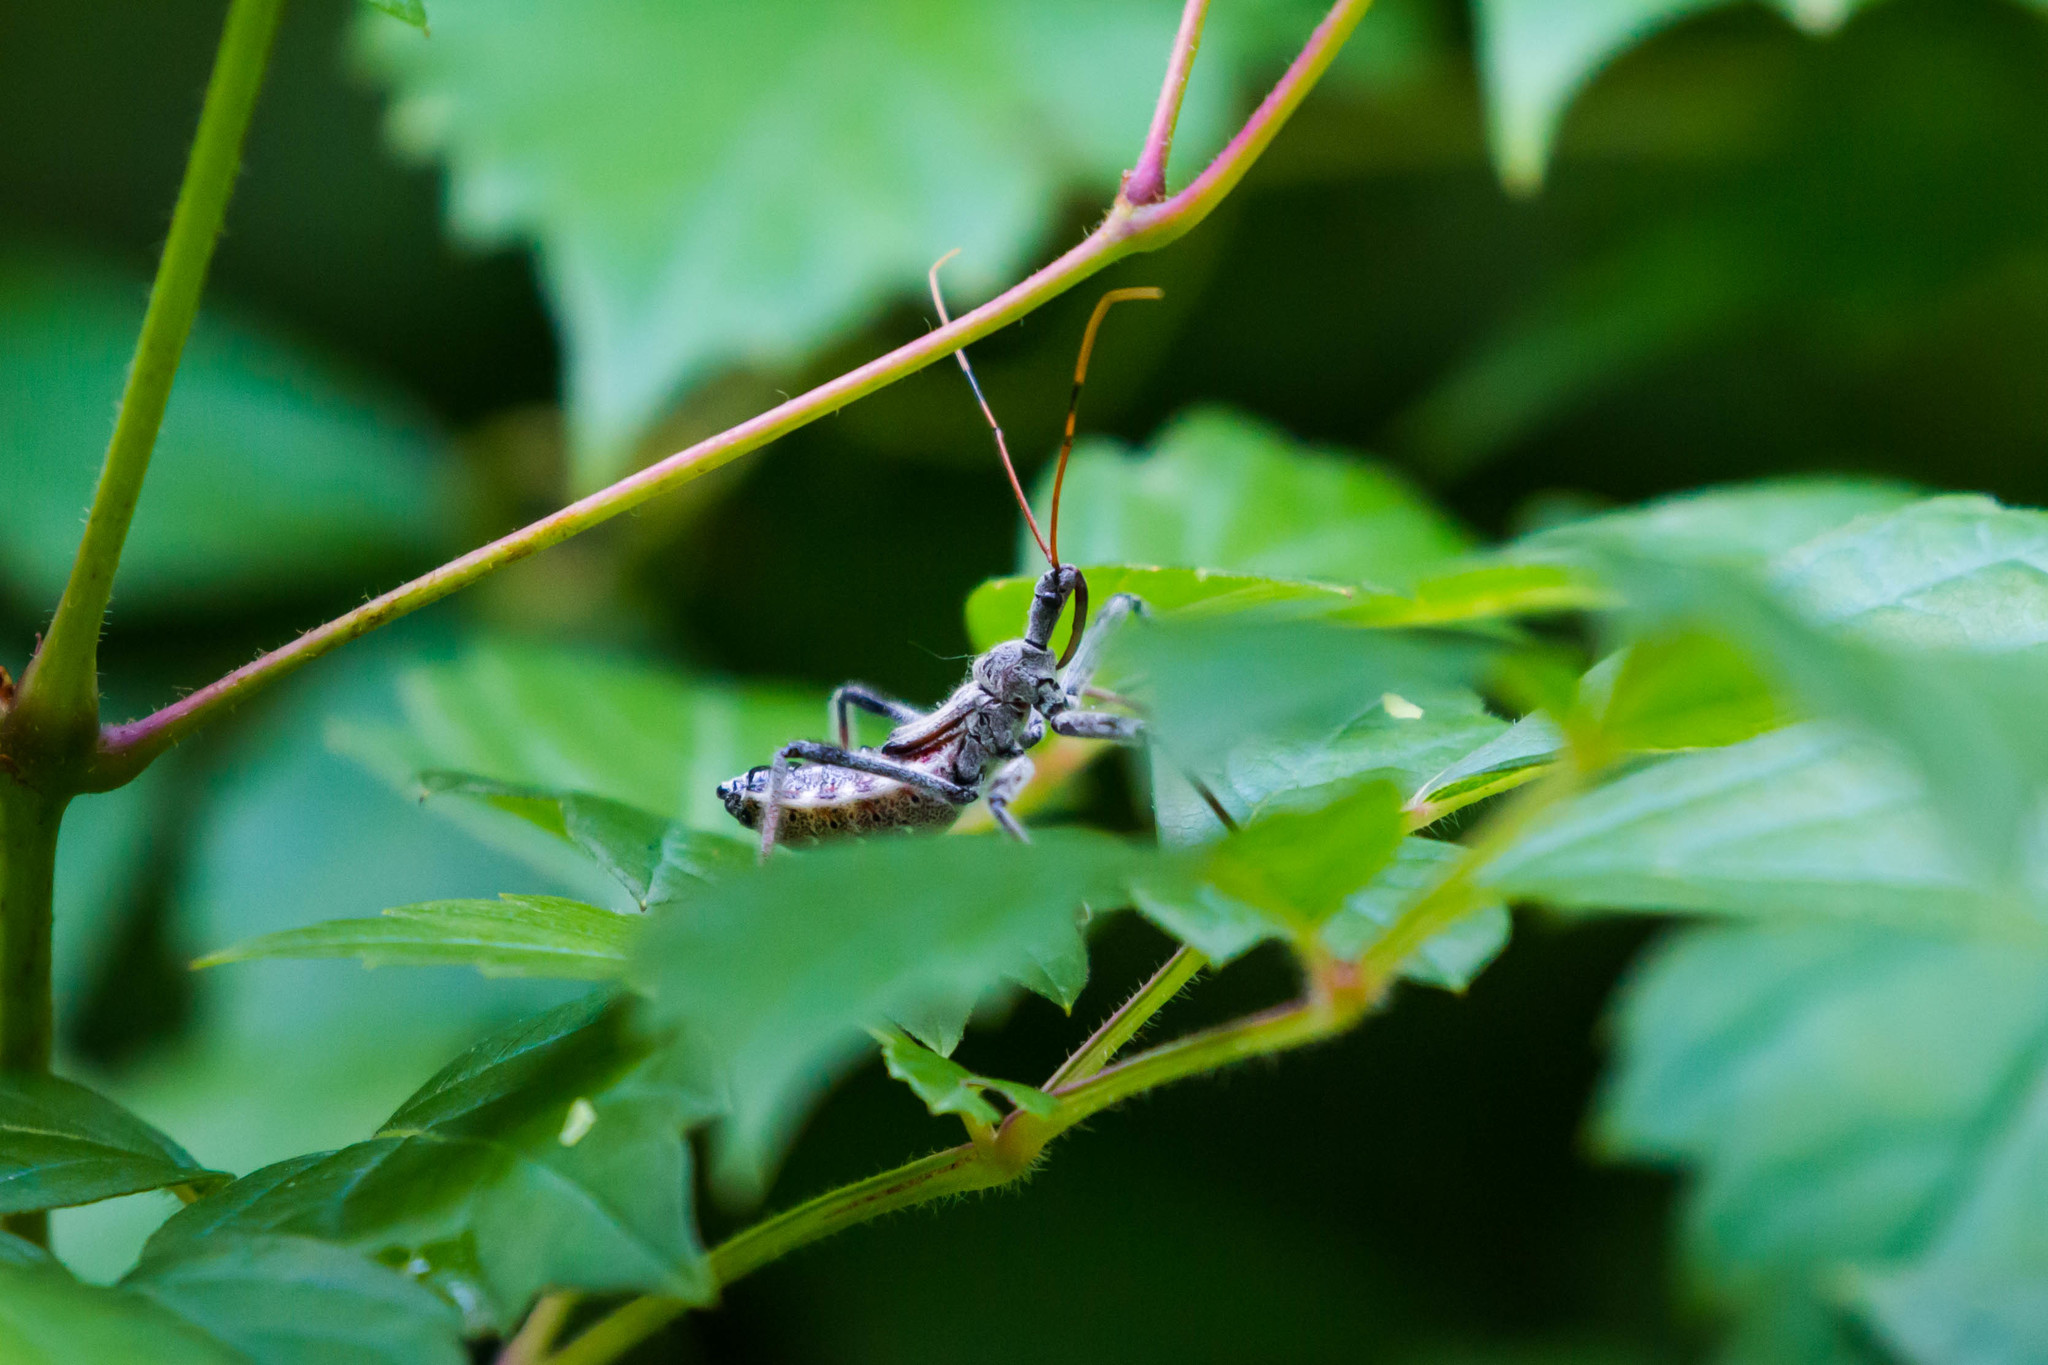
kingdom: Animalia
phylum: Arthropoda
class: Insecta
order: Hemiptera
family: Reduviidae
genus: Arilus
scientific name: Arilus cristatus
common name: North american wheel bug
